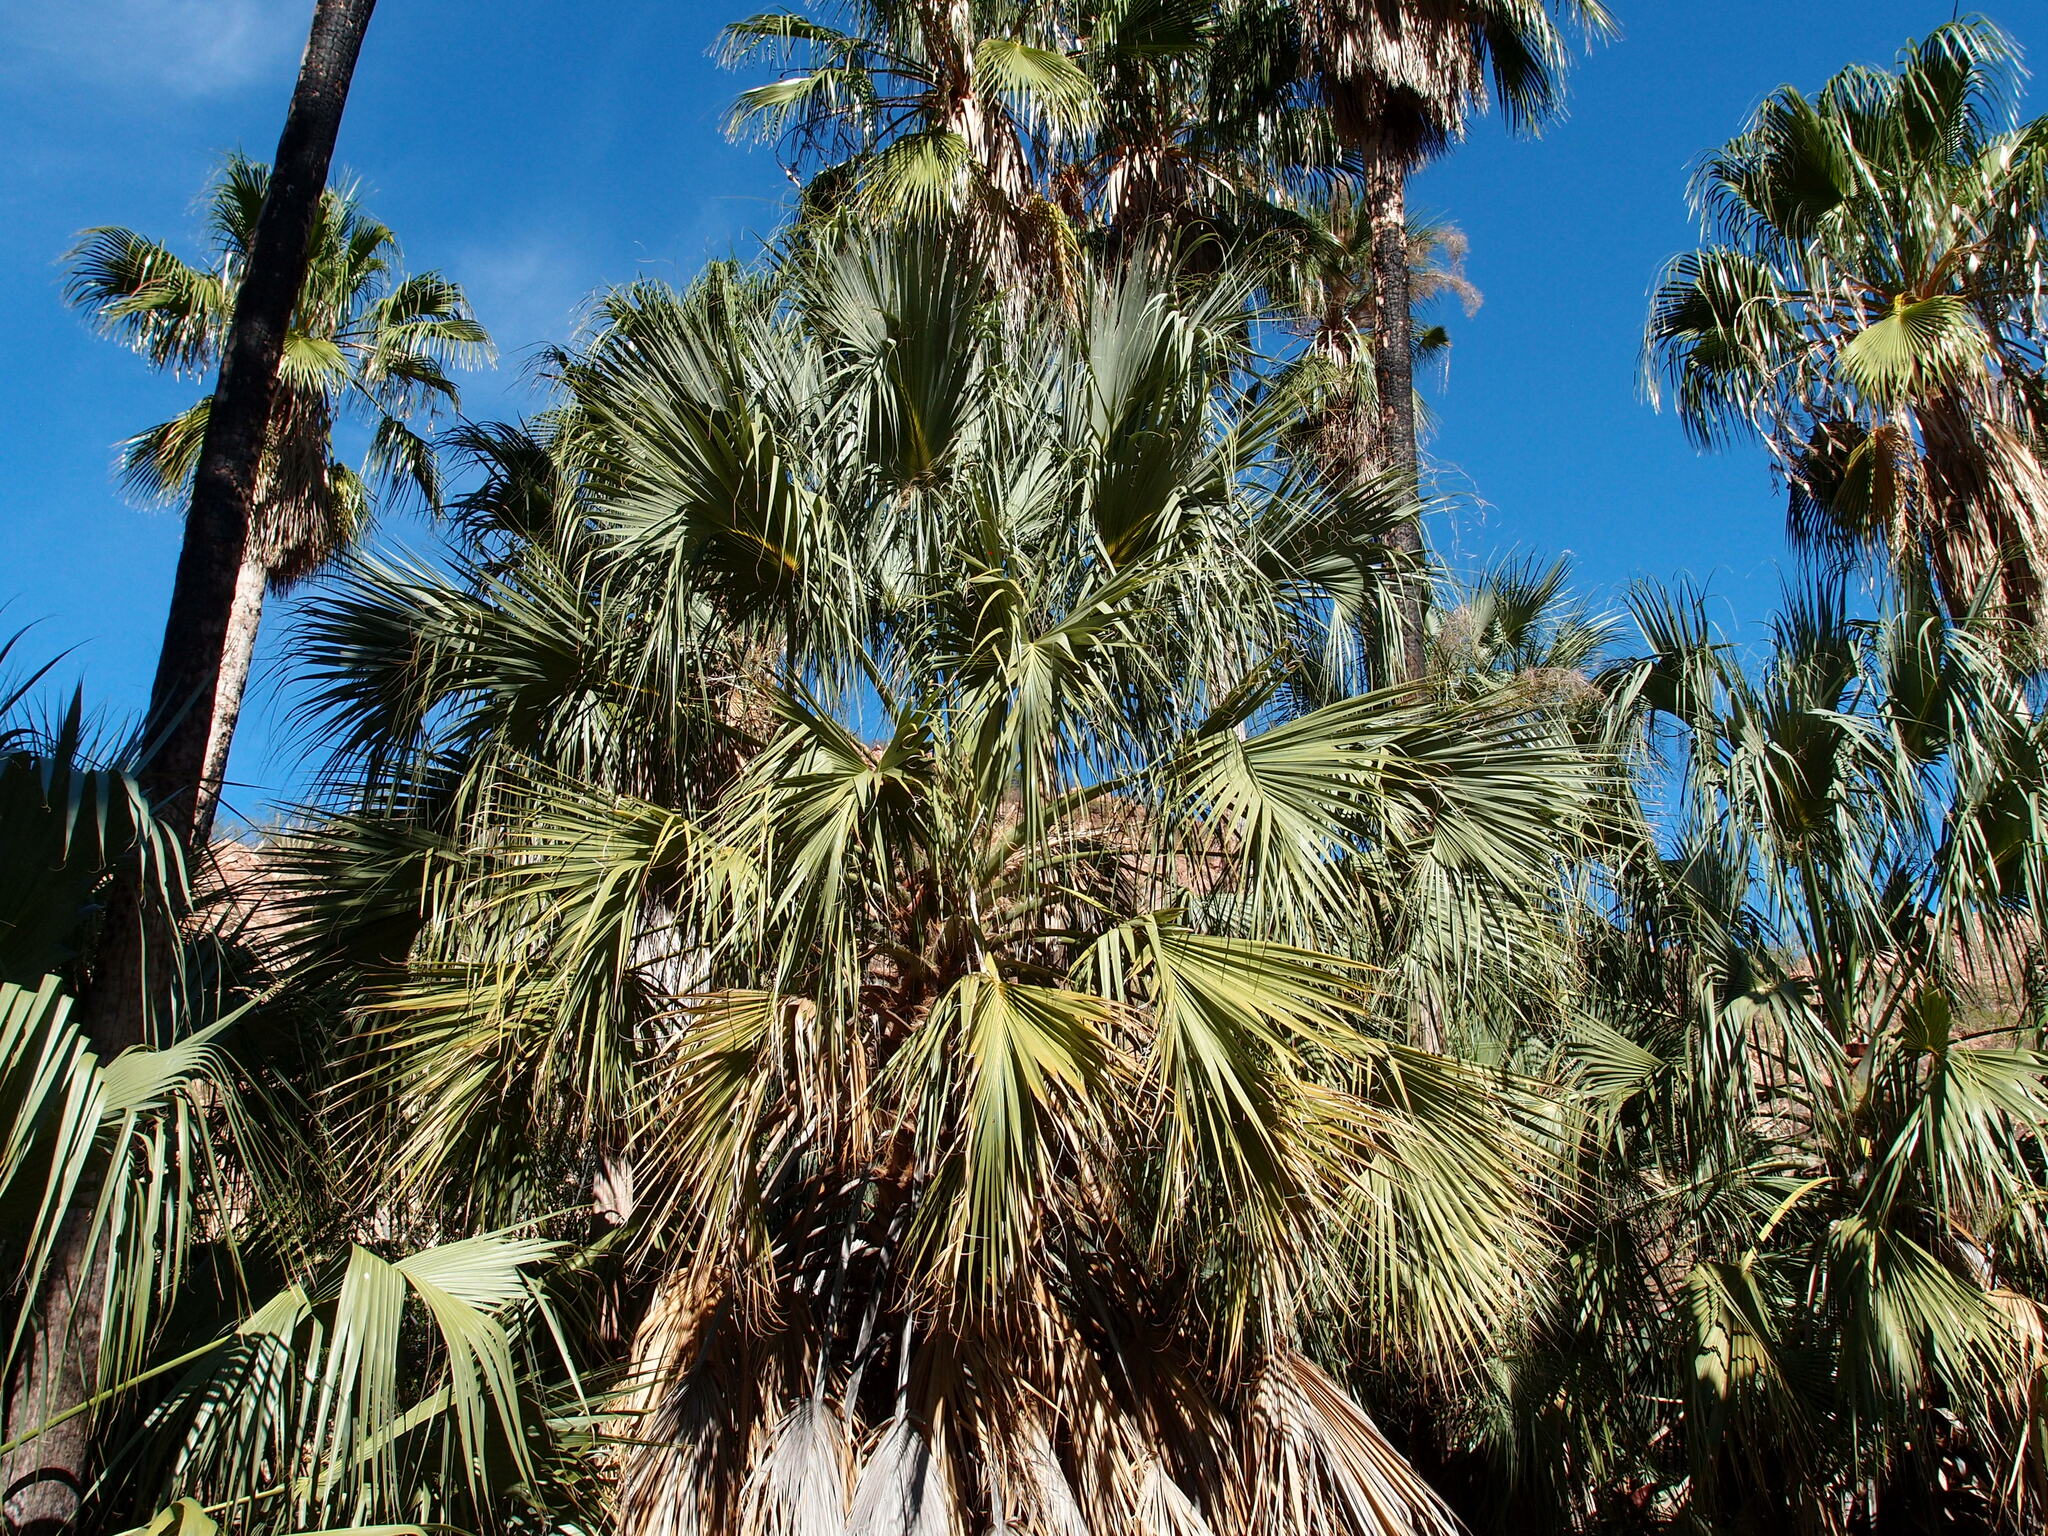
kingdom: Plantae
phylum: Tracheophyta
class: Liliopsida
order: Arecales
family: Arecaceae
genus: Sabal
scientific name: Sabal uresana
